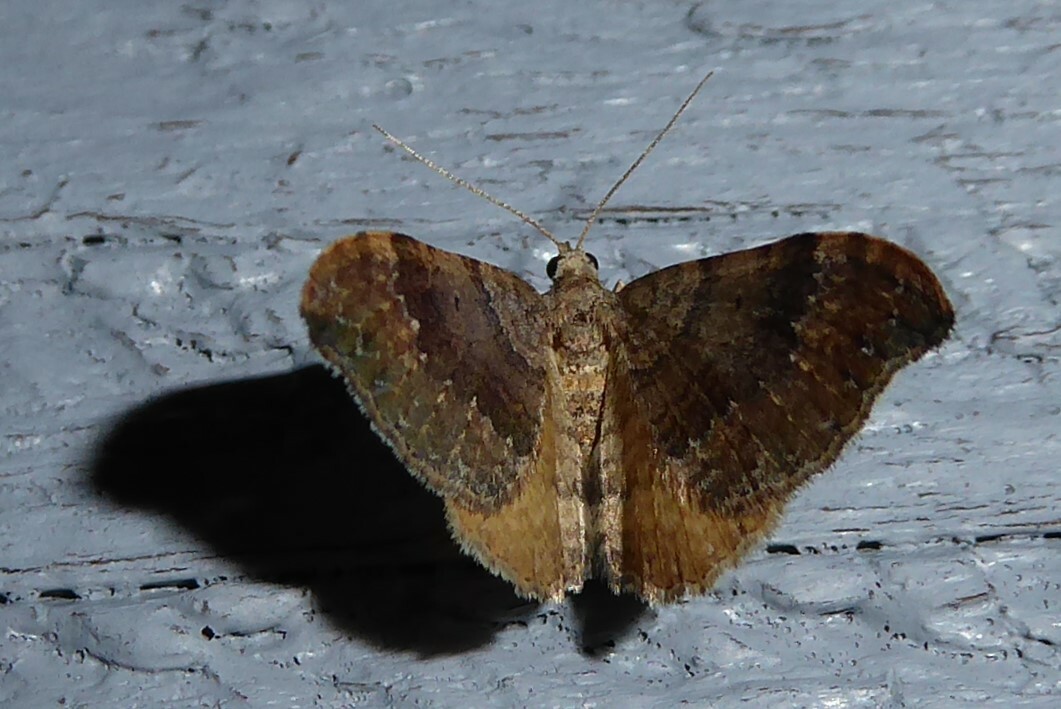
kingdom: Animalia
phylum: Arthropoda
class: Insecta
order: Lepidoptera
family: Geometridae
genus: Homodotis
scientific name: Homodotis megaspilata
